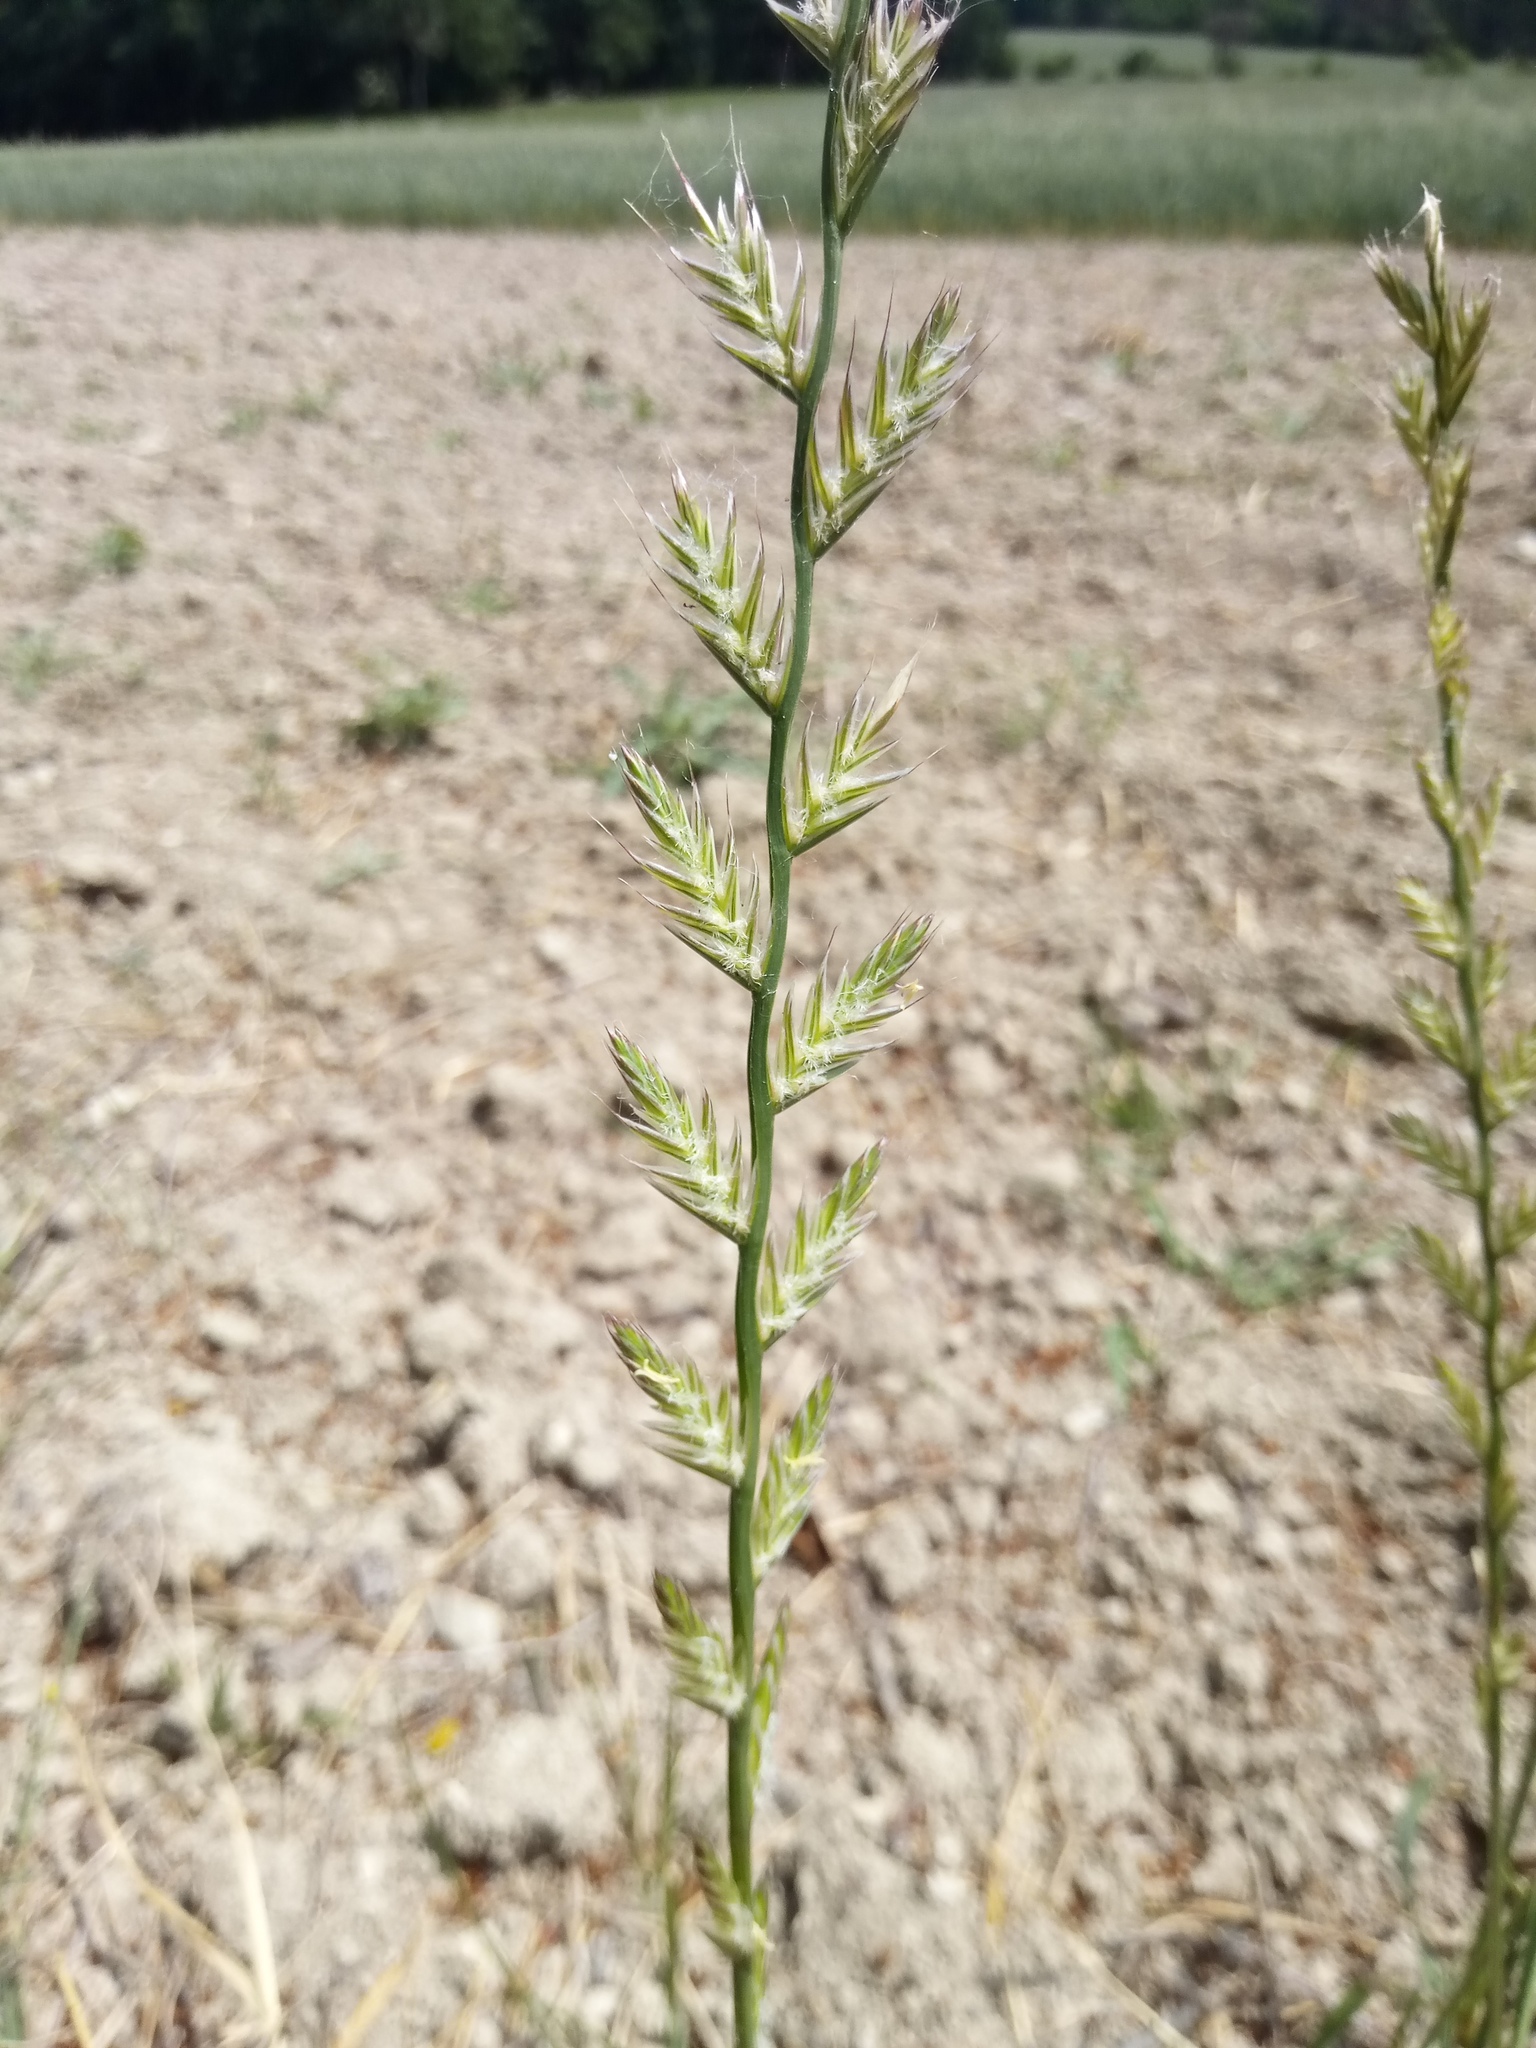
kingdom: Plantae
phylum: Tracheophyta
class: Liliopsida
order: Poales
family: Poaceae
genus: Lolium
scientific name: Lolium multiflorum
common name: Annual ryegrass
